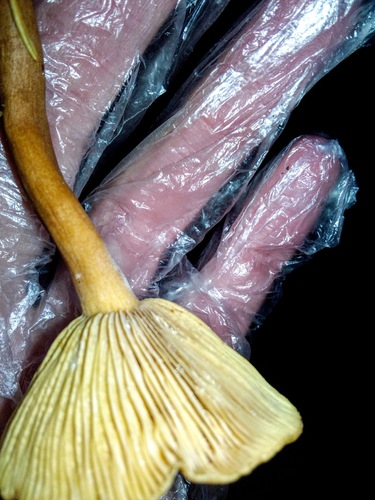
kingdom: Fungi
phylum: Basidiomycota
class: Agaricomycetes
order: Russulales
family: Russulaceae
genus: Lactarius
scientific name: Lactarius
